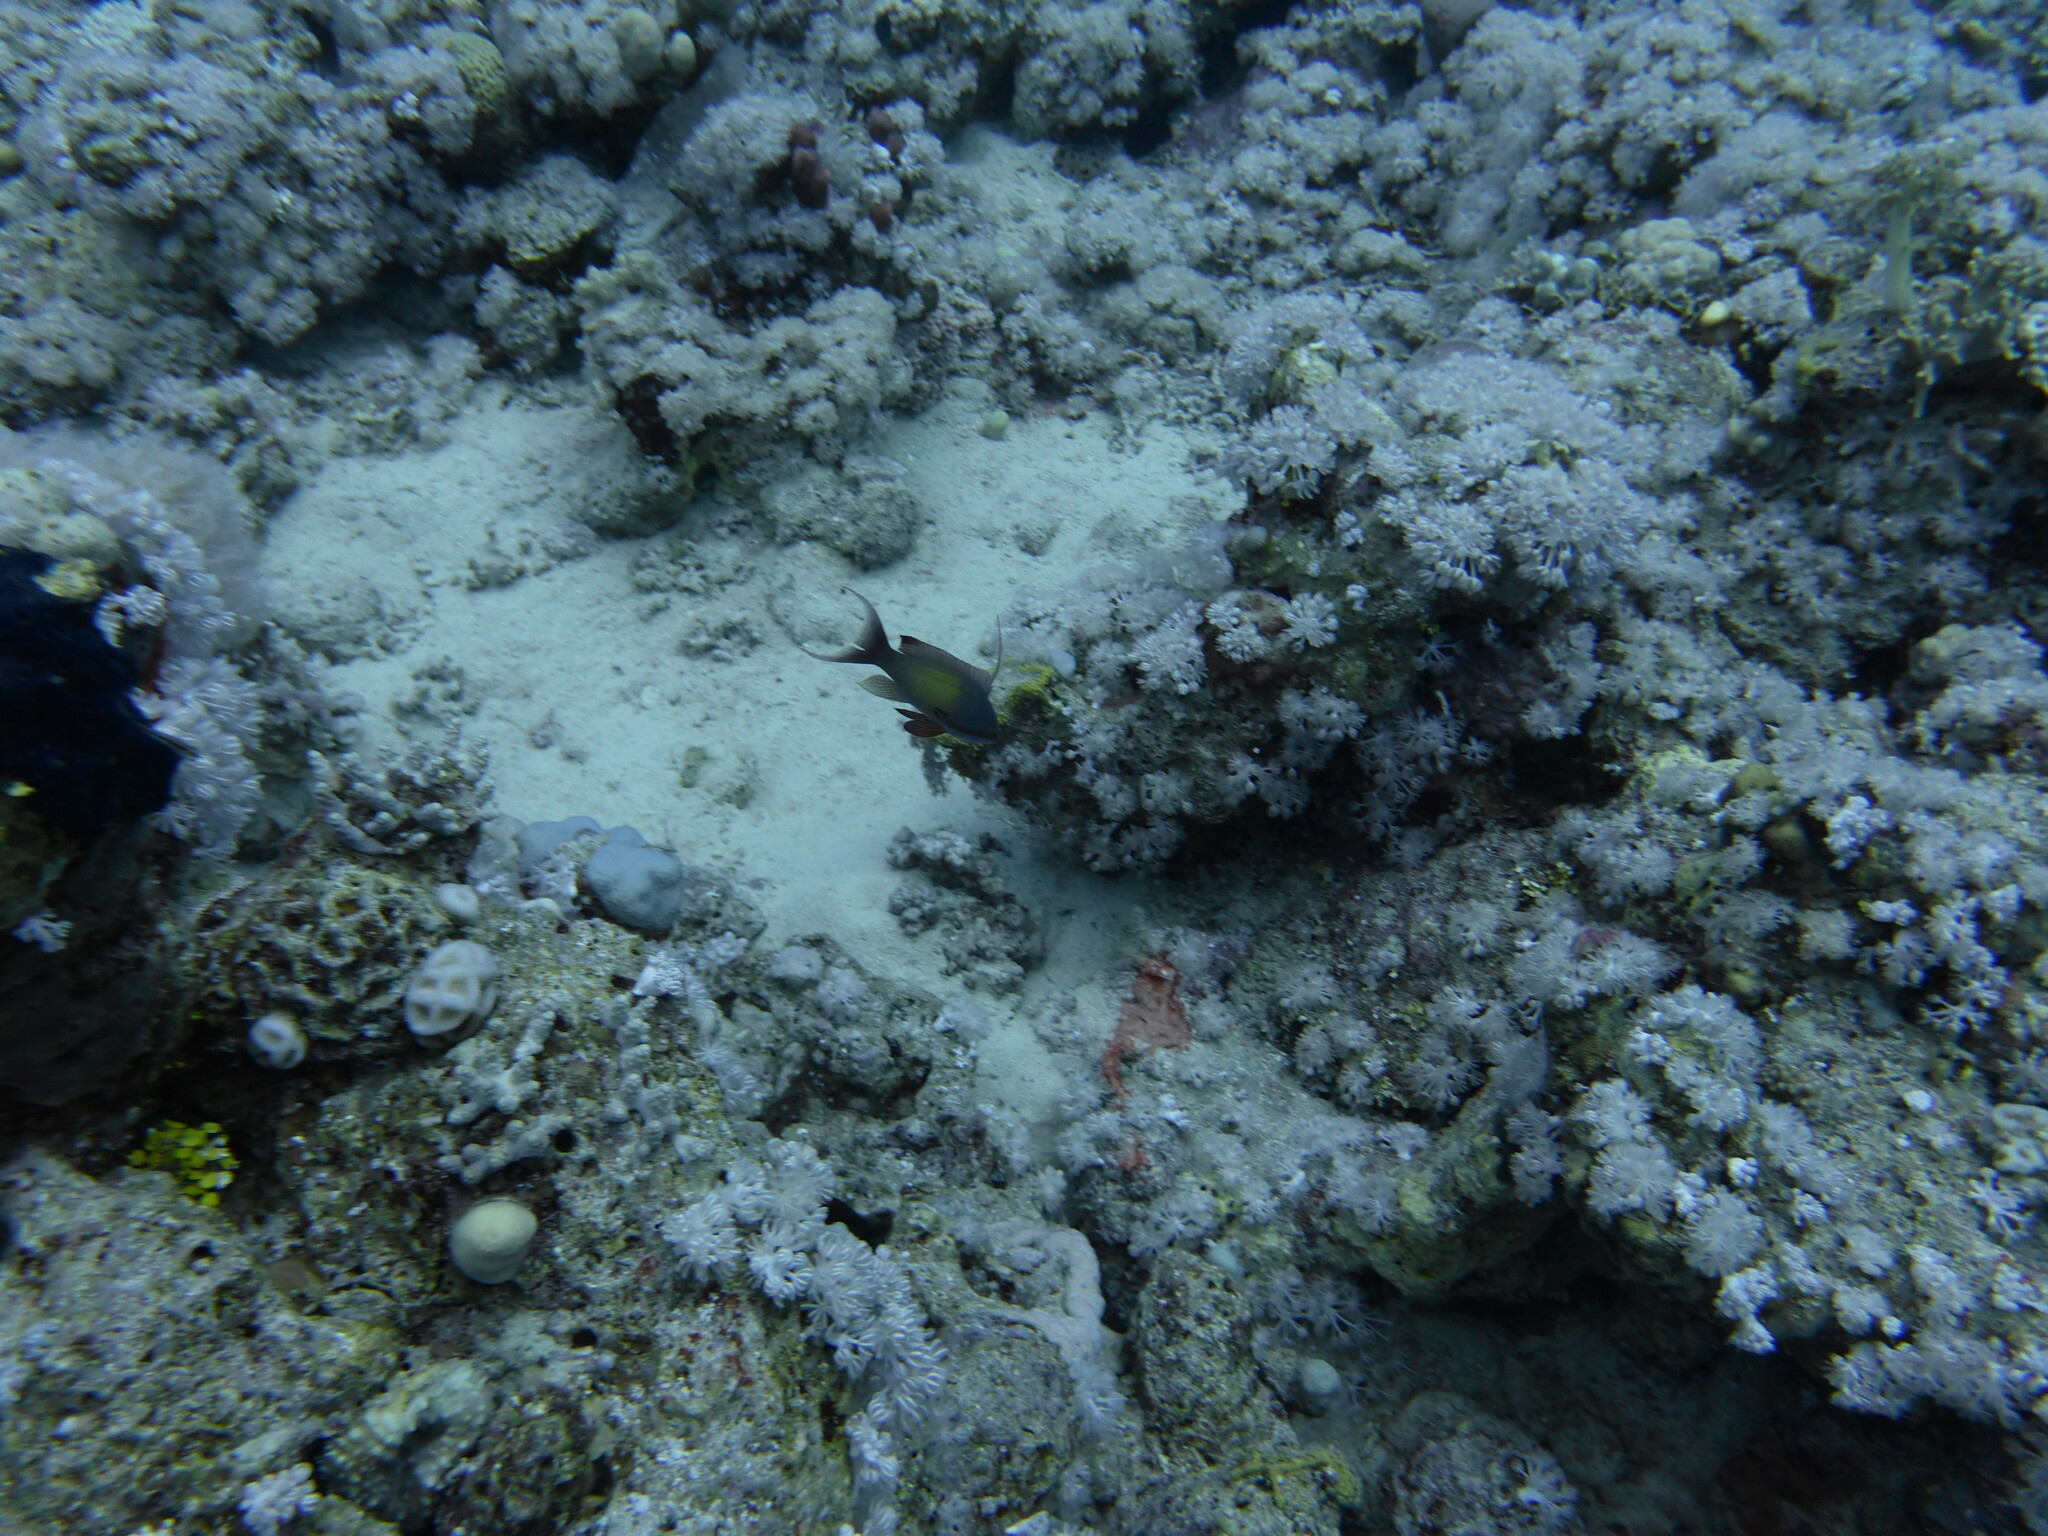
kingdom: Animalia
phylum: Chordata
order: Perciformes
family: Serranidae
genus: Pseudanthias
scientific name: Pseudanthias squamipinnis
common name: Scalefin anthias
